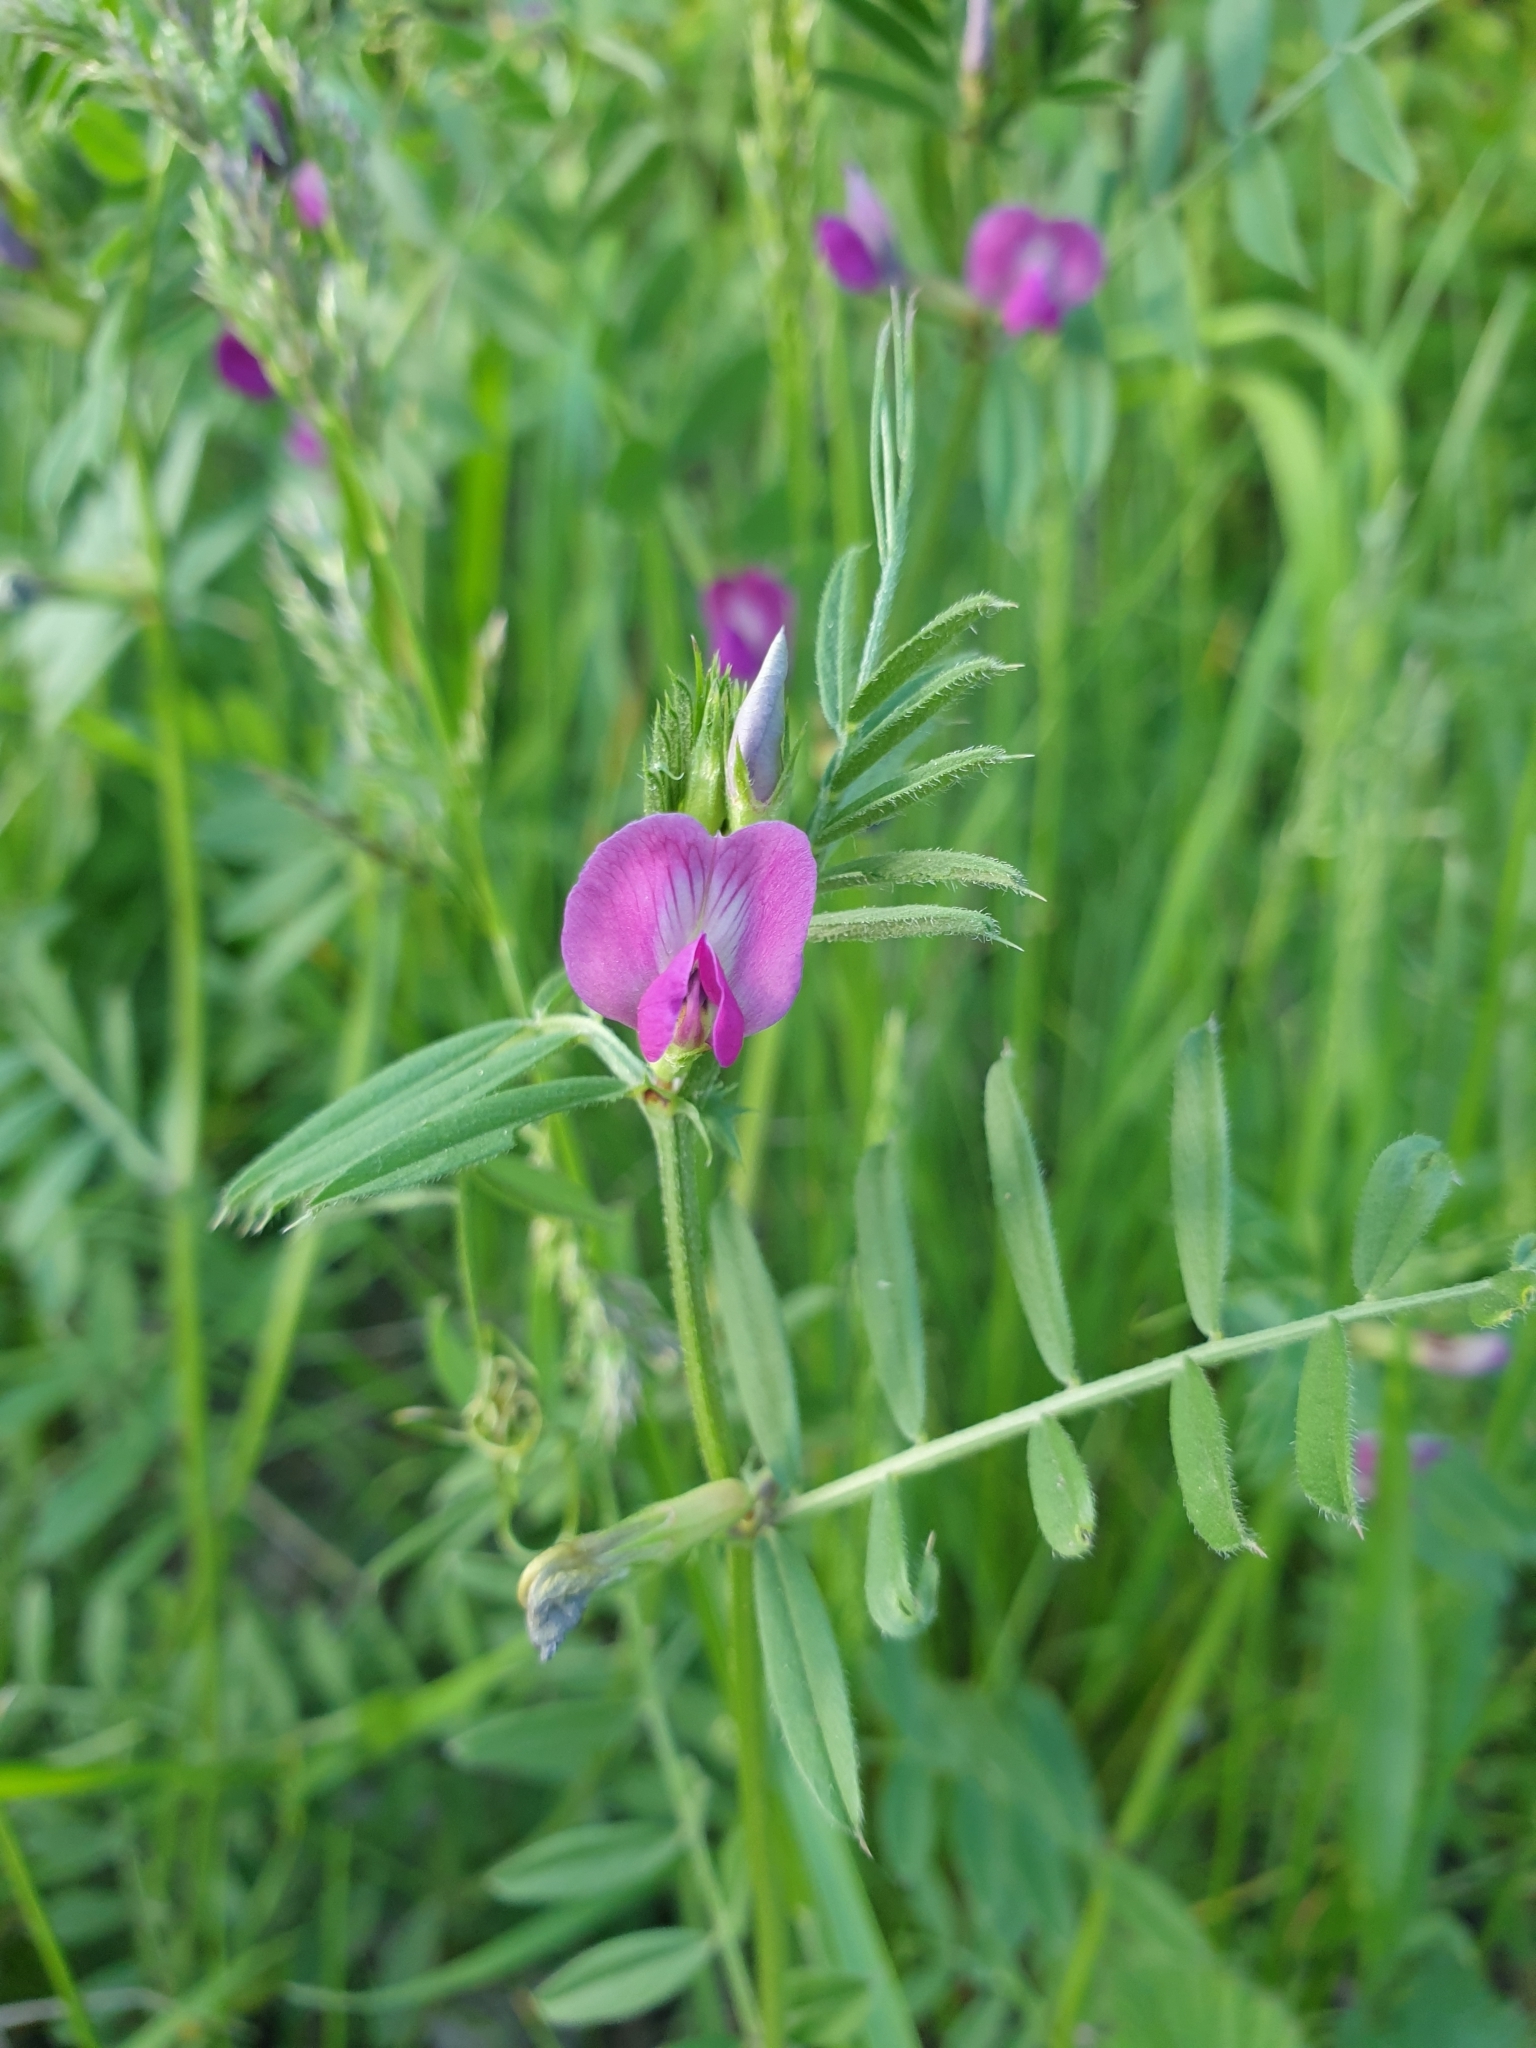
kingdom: Plantae
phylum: Tracheophyta
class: Magnoliopsida
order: Fabales
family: Fabaceae
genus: Vicia
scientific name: Vicia sativa
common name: Garden vetch
